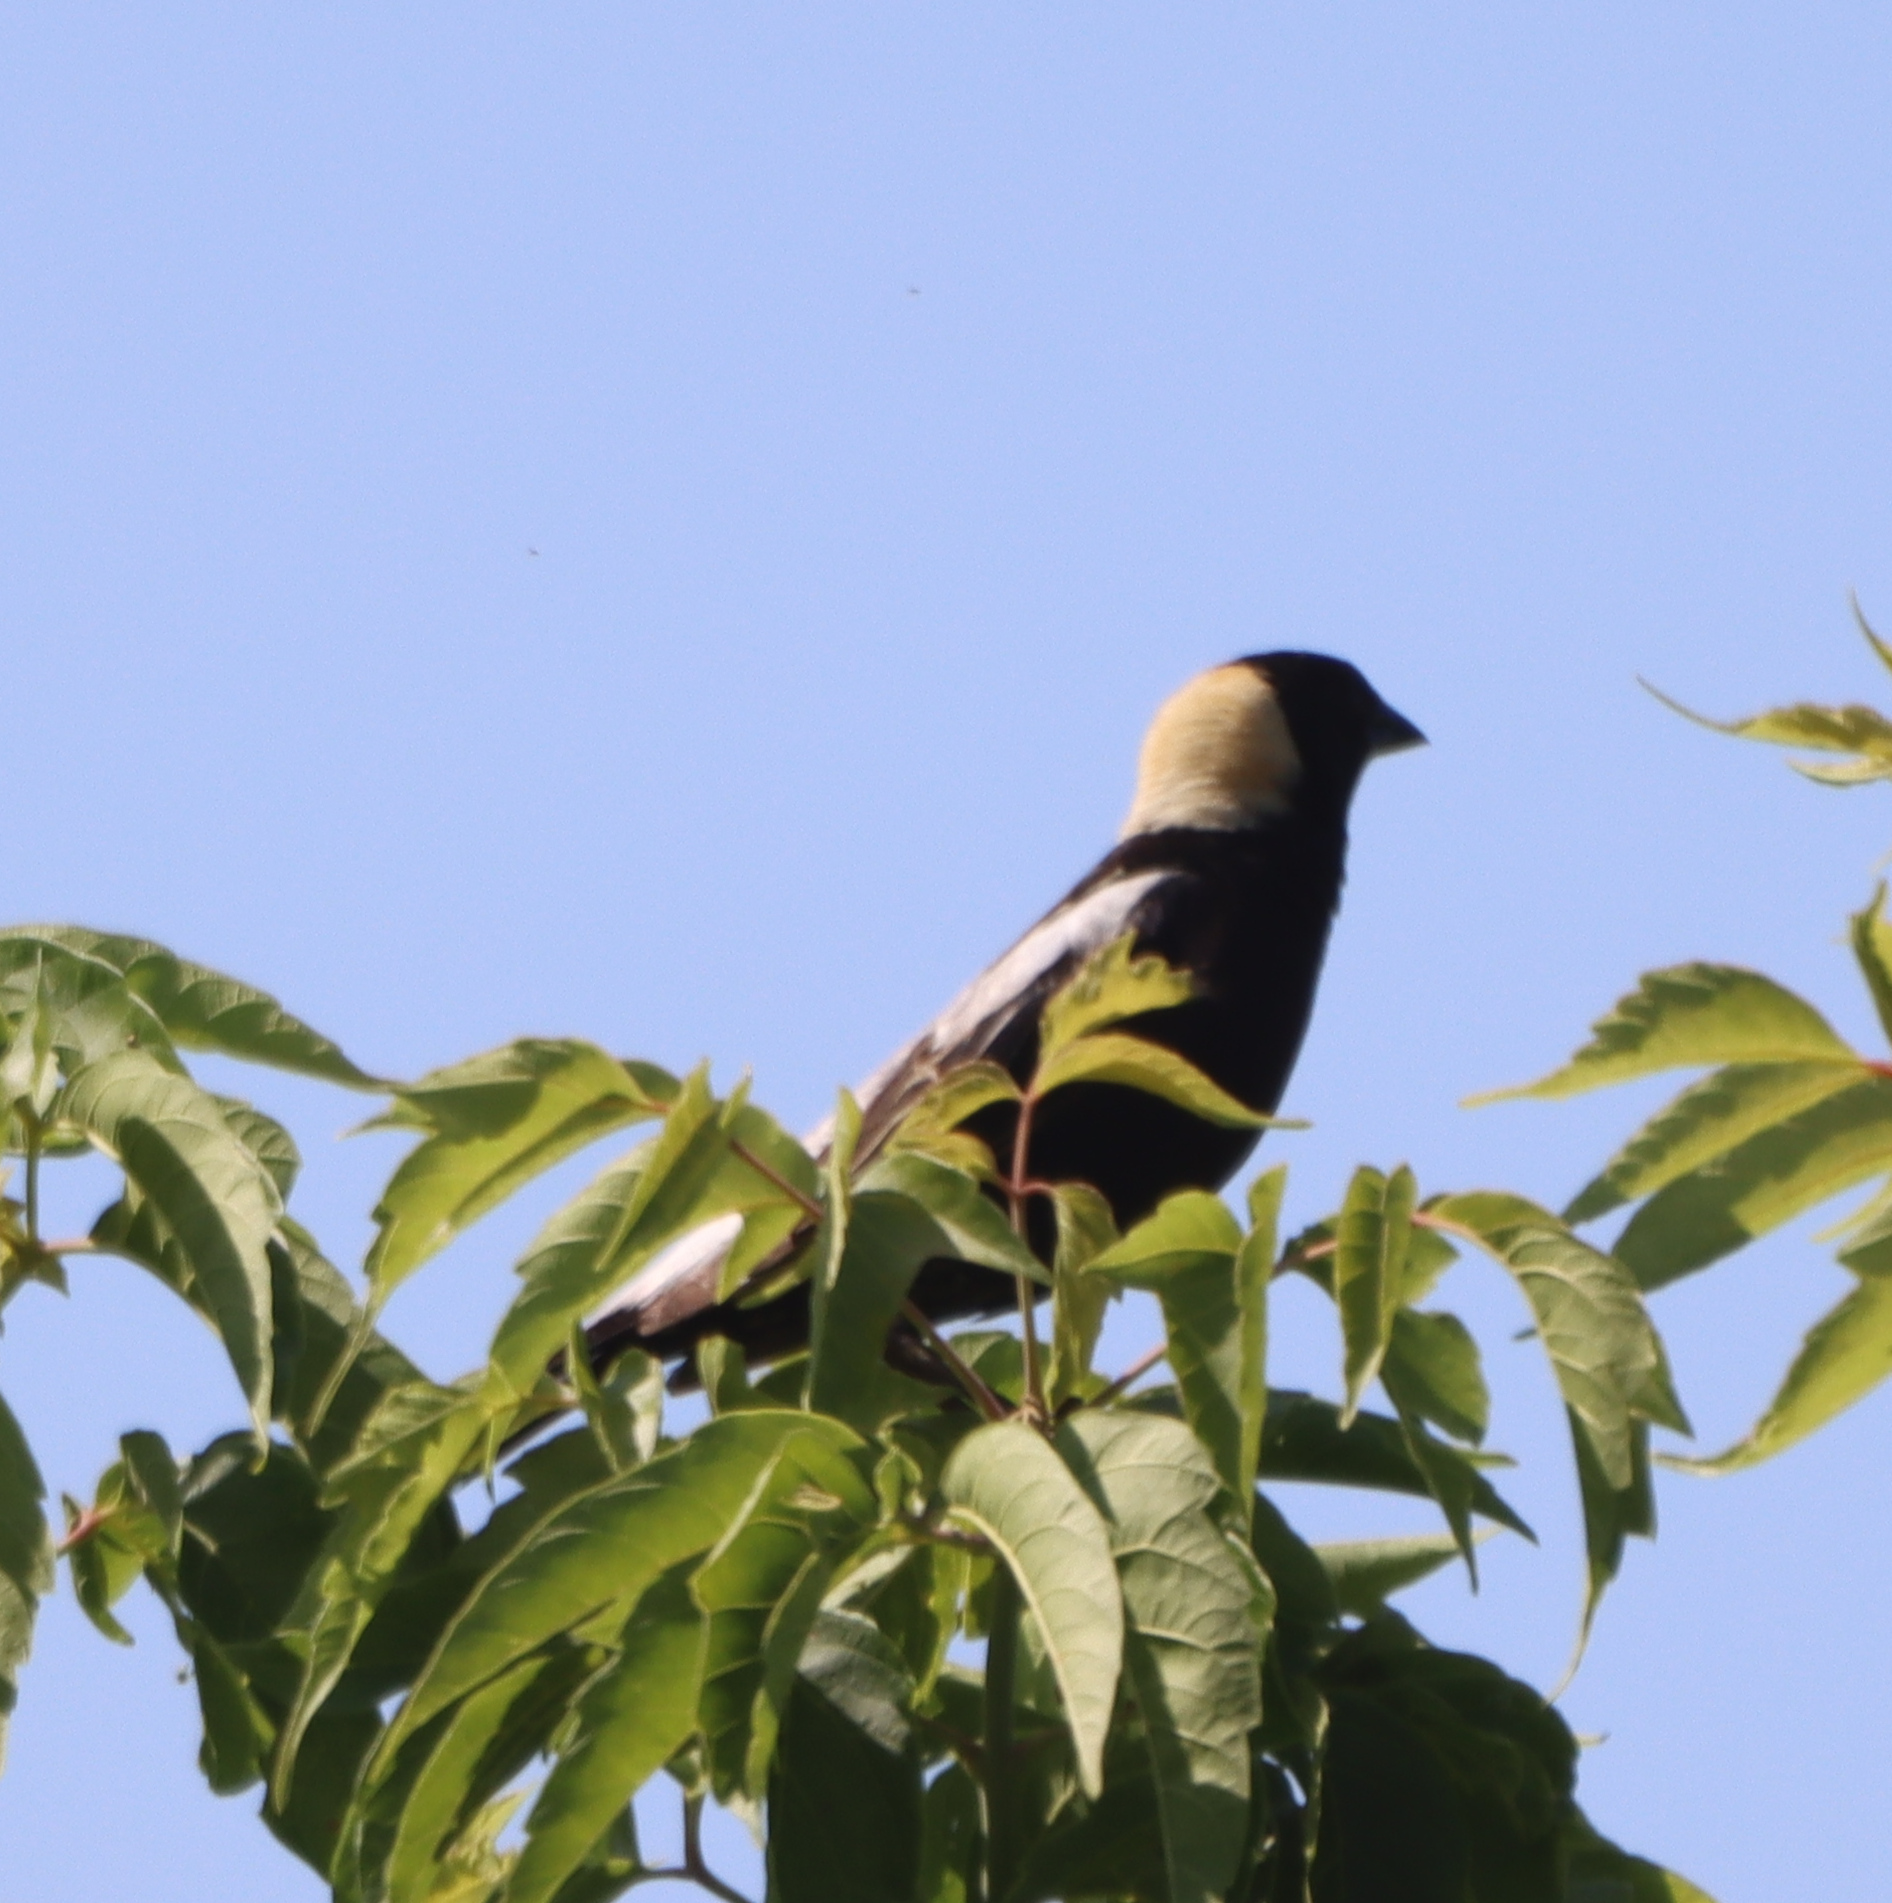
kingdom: Animalia
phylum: Chordata
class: Aves
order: Passeriformes
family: Icteridae
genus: Dolichonyx
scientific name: Dolichonyx oryzivorus
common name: Bobolink
